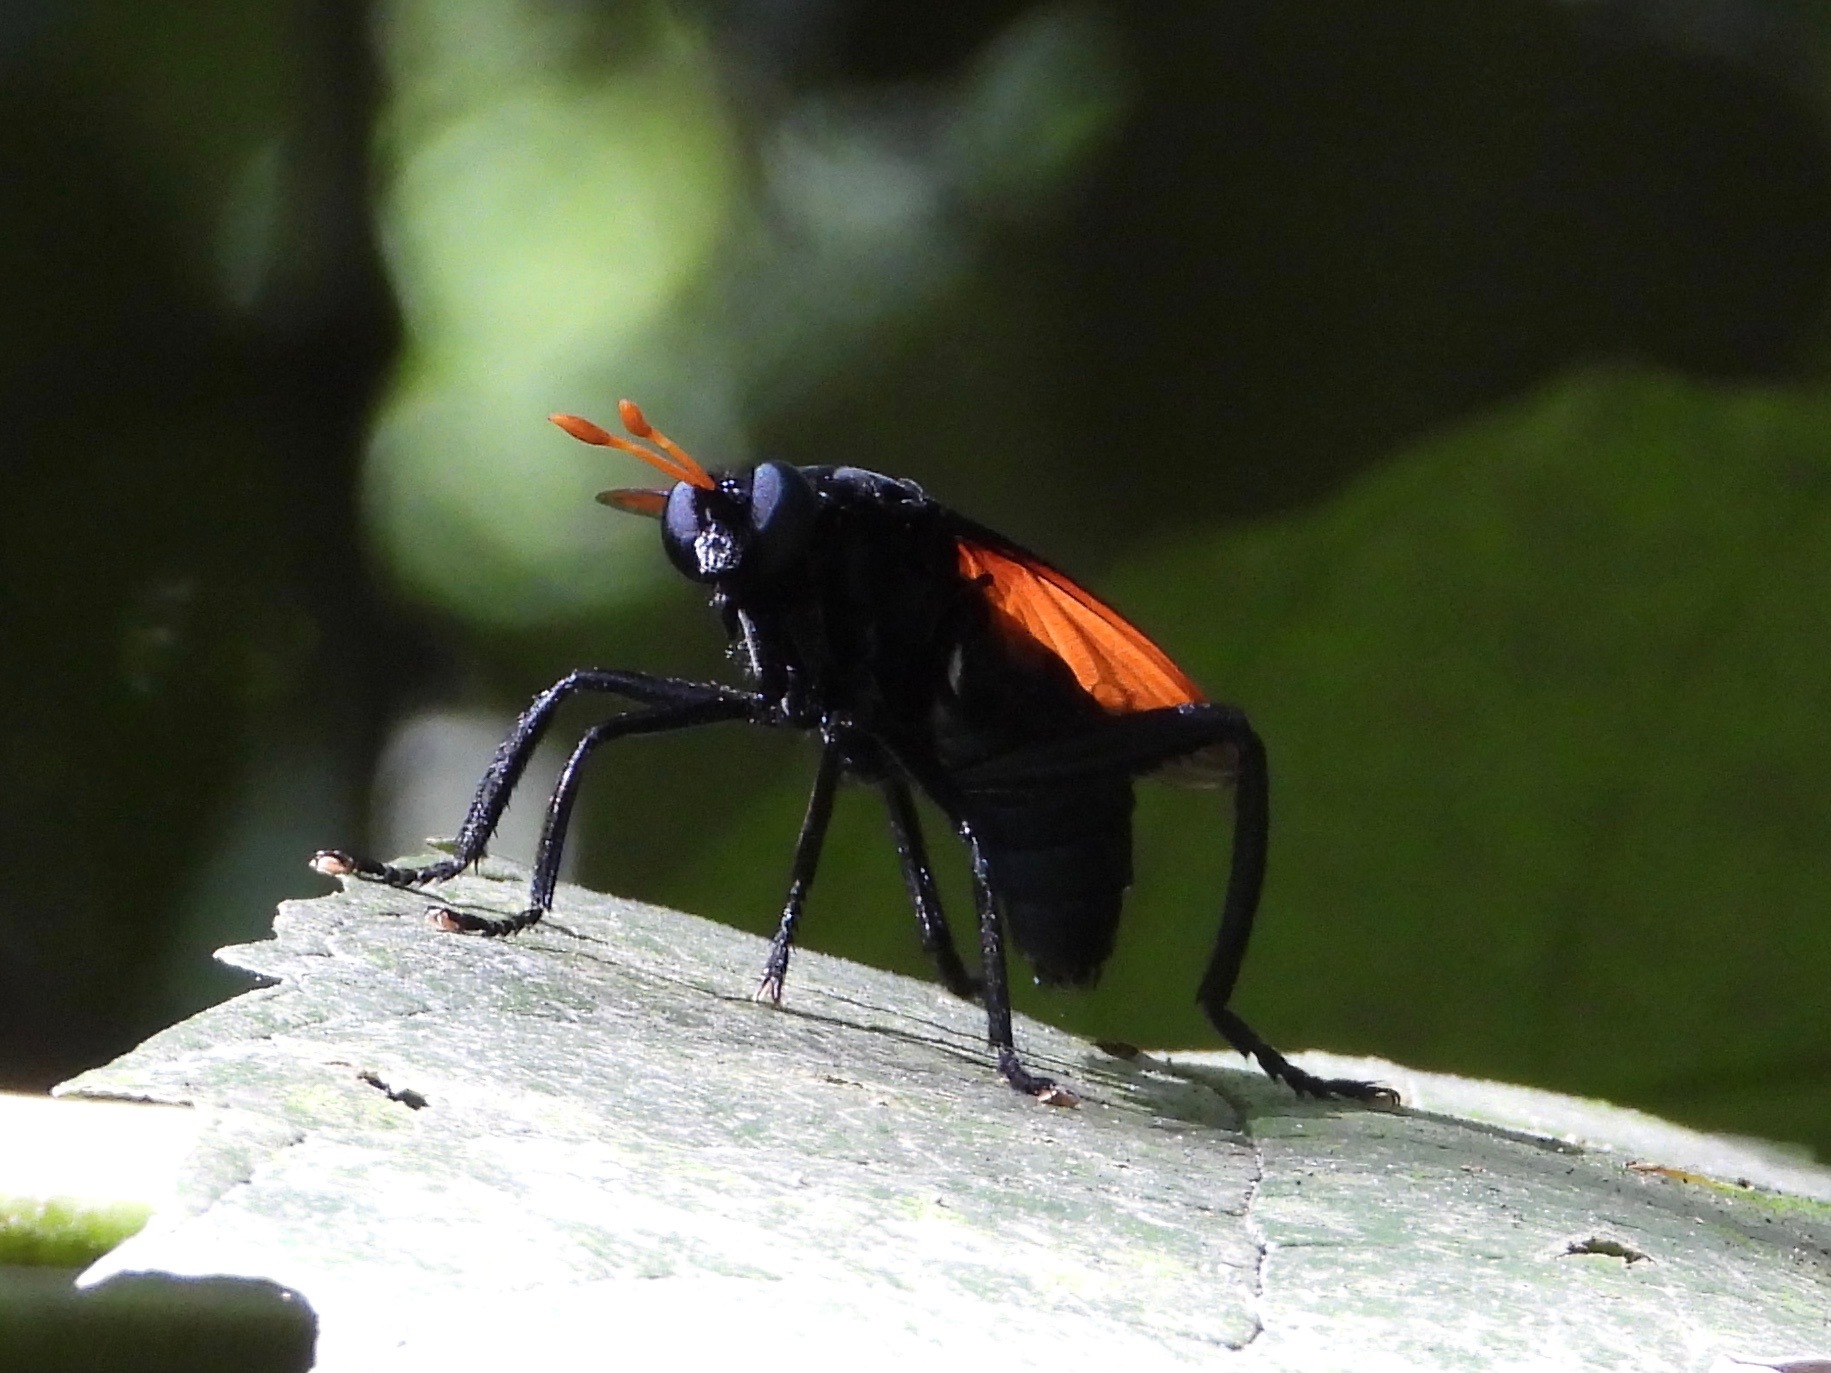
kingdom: Animalia
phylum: Arthropoda
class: Insecta
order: Diptera
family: Mydidae
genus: Mydas
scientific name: Mydas rubidapex
